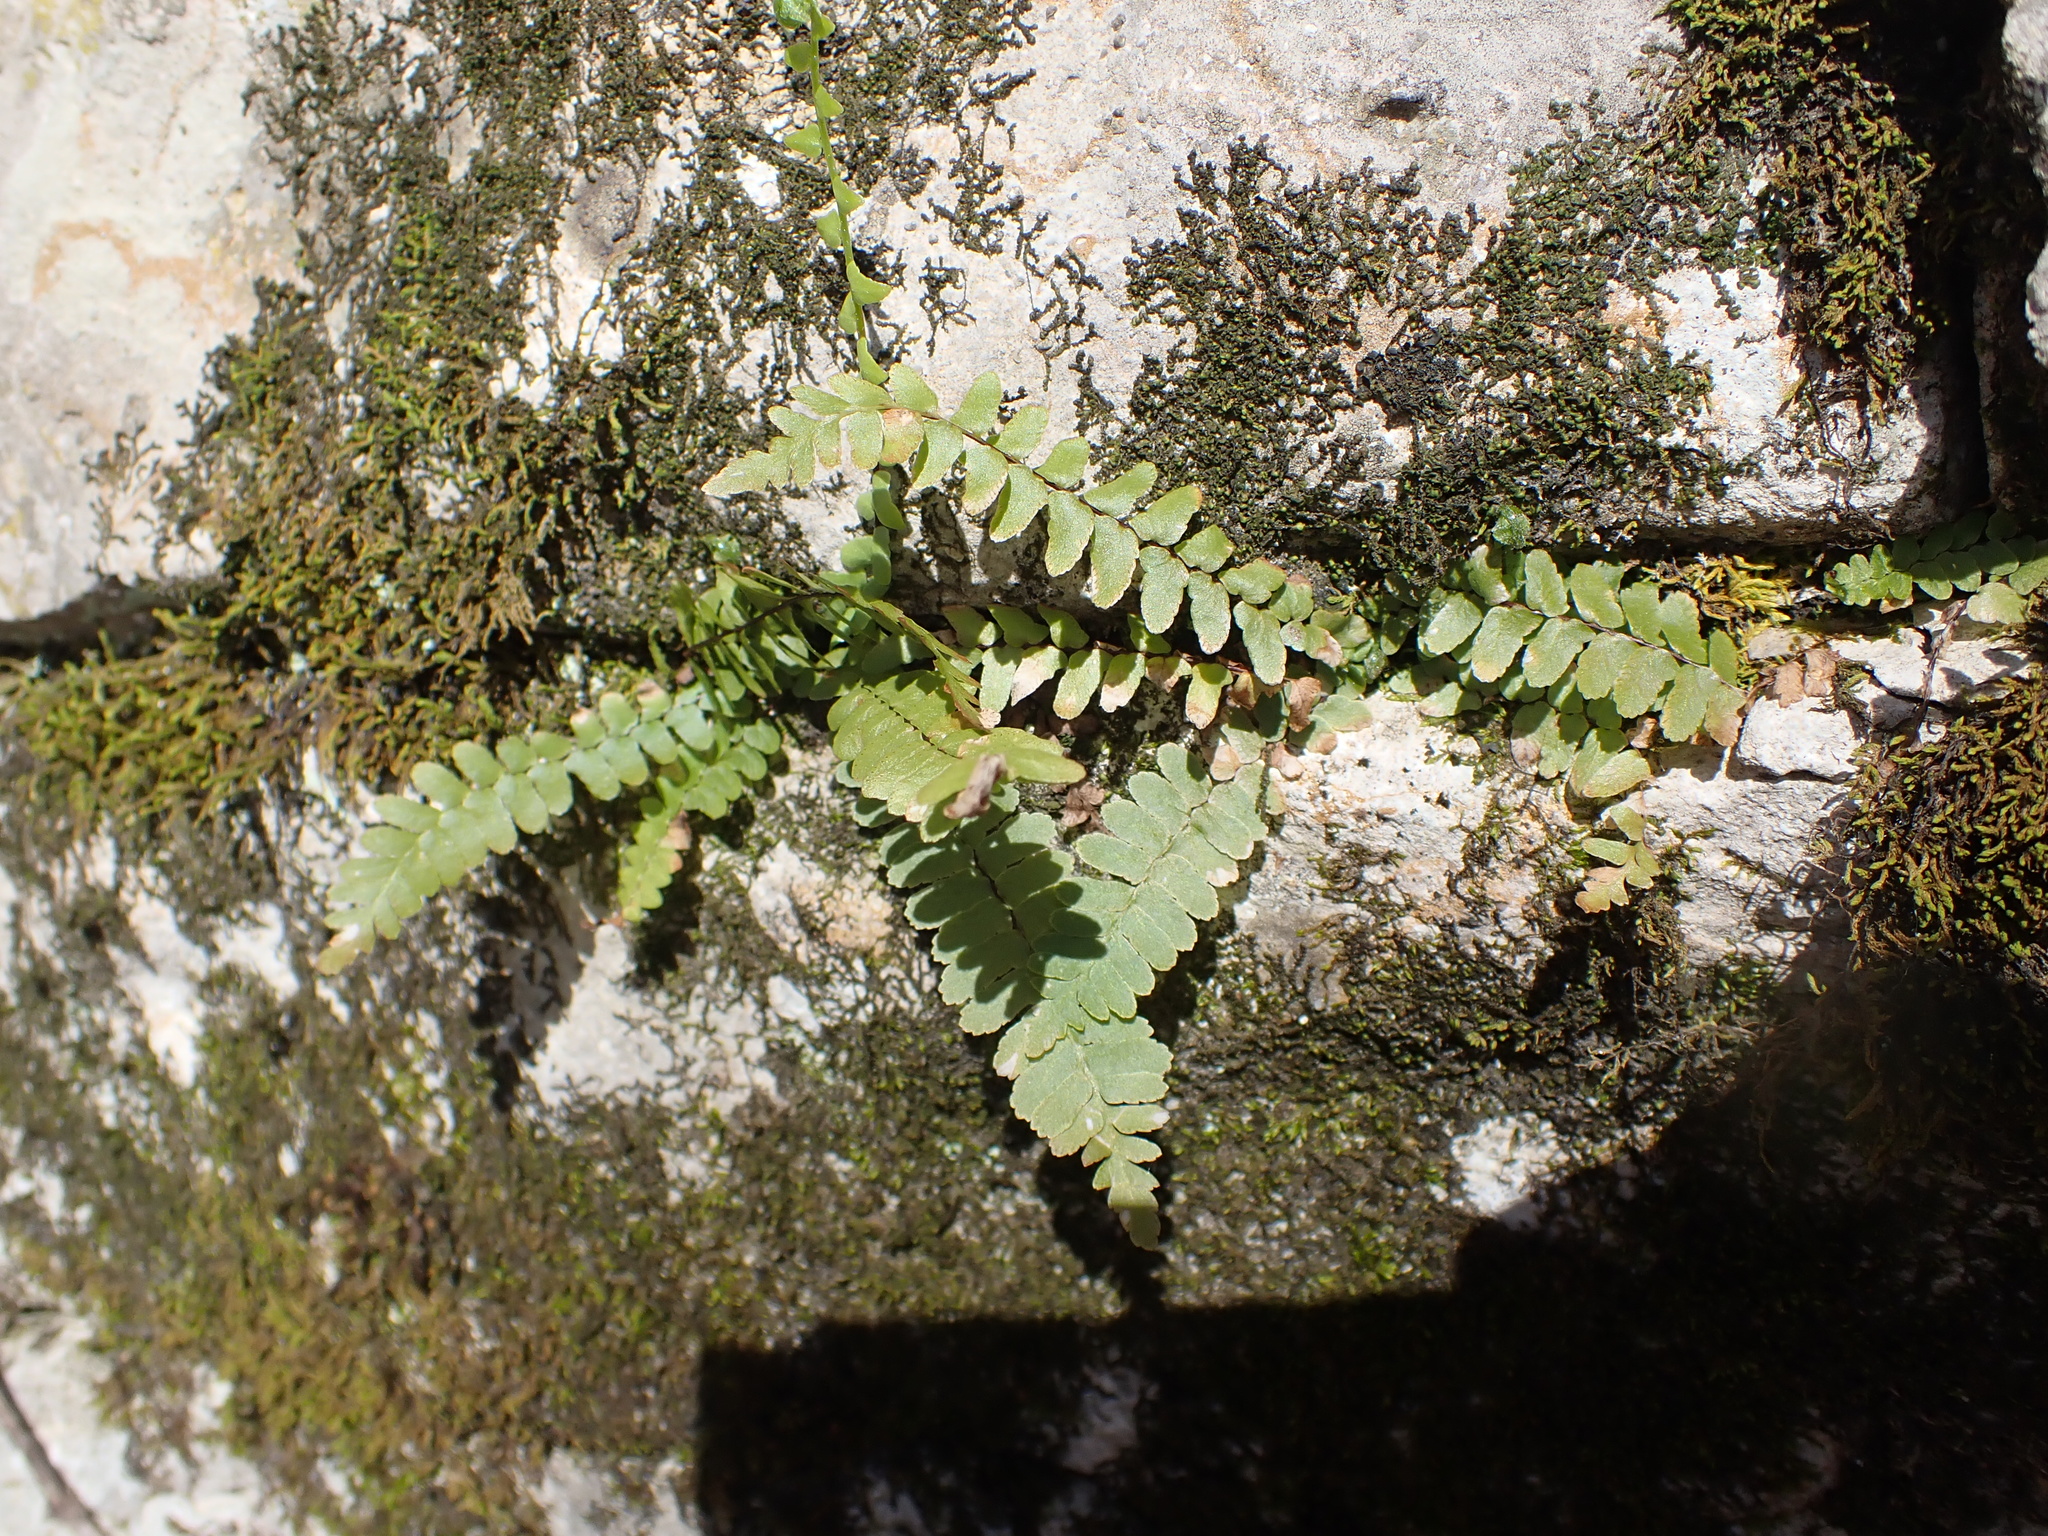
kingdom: Plantae
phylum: Tracheophyta
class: Polypodiopsida
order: Polypodiales
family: Aspleniaceae
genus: Asplenium
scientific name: Asplenium platyneuron
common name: Ebony spleenwort
